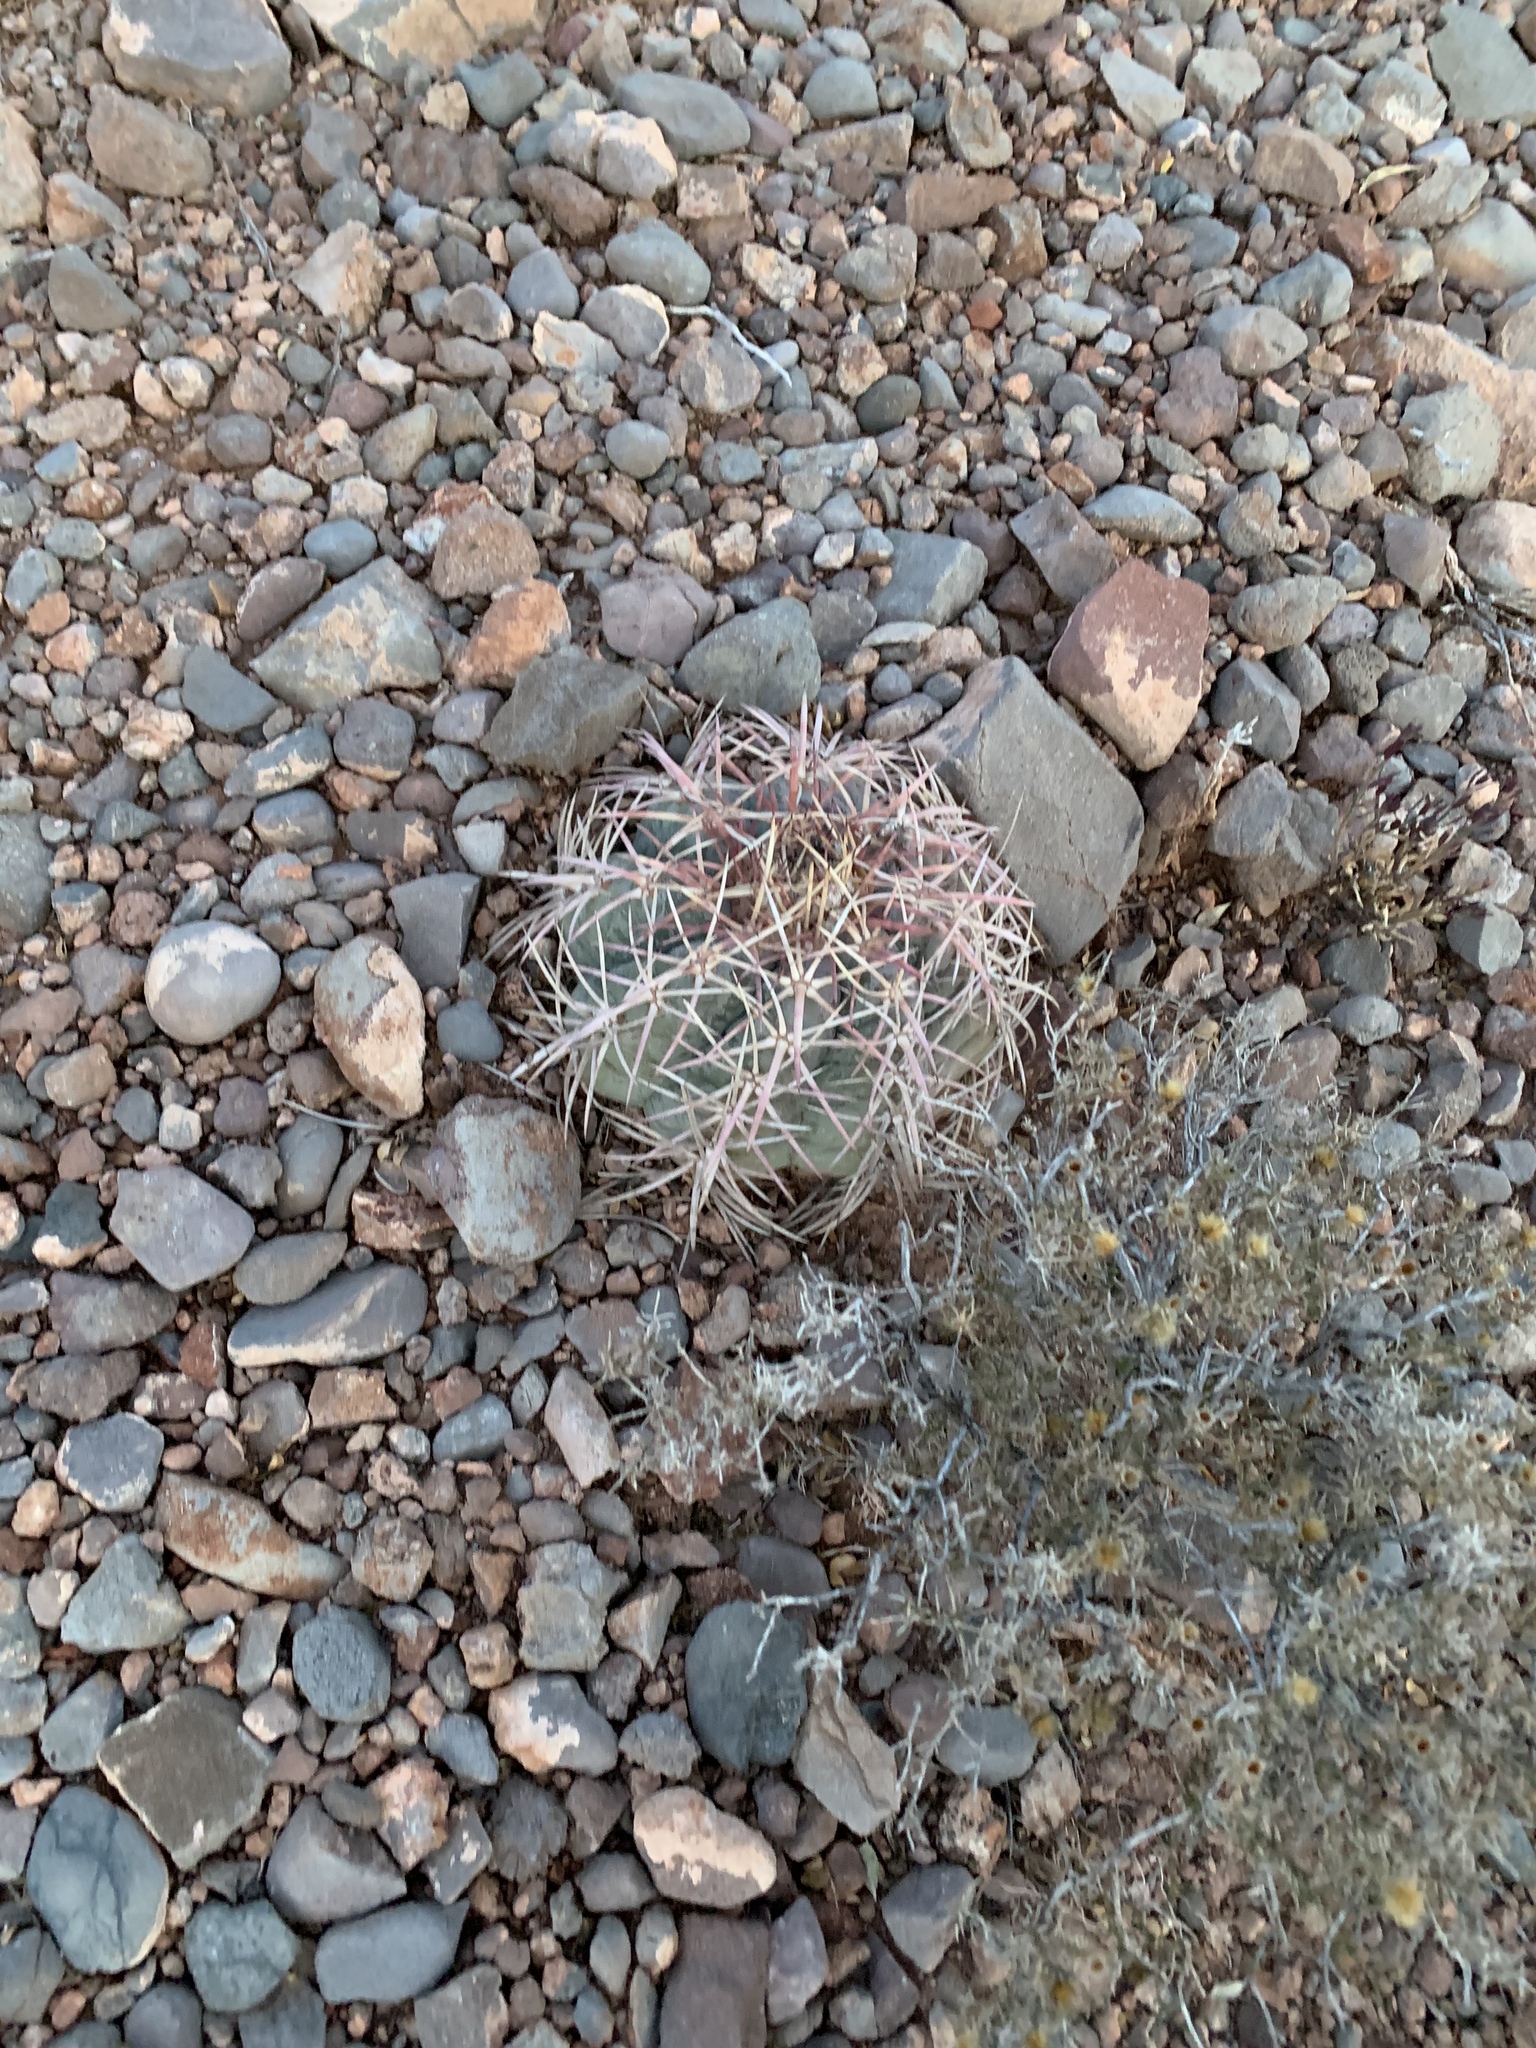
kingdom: Plantae
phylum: Tracheophyta
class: Magnoliopsida
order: Caryophyllales
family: Cactaceae
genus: Echinocactus
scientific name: Echinocactus horizonthalonius
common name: Devilshead
